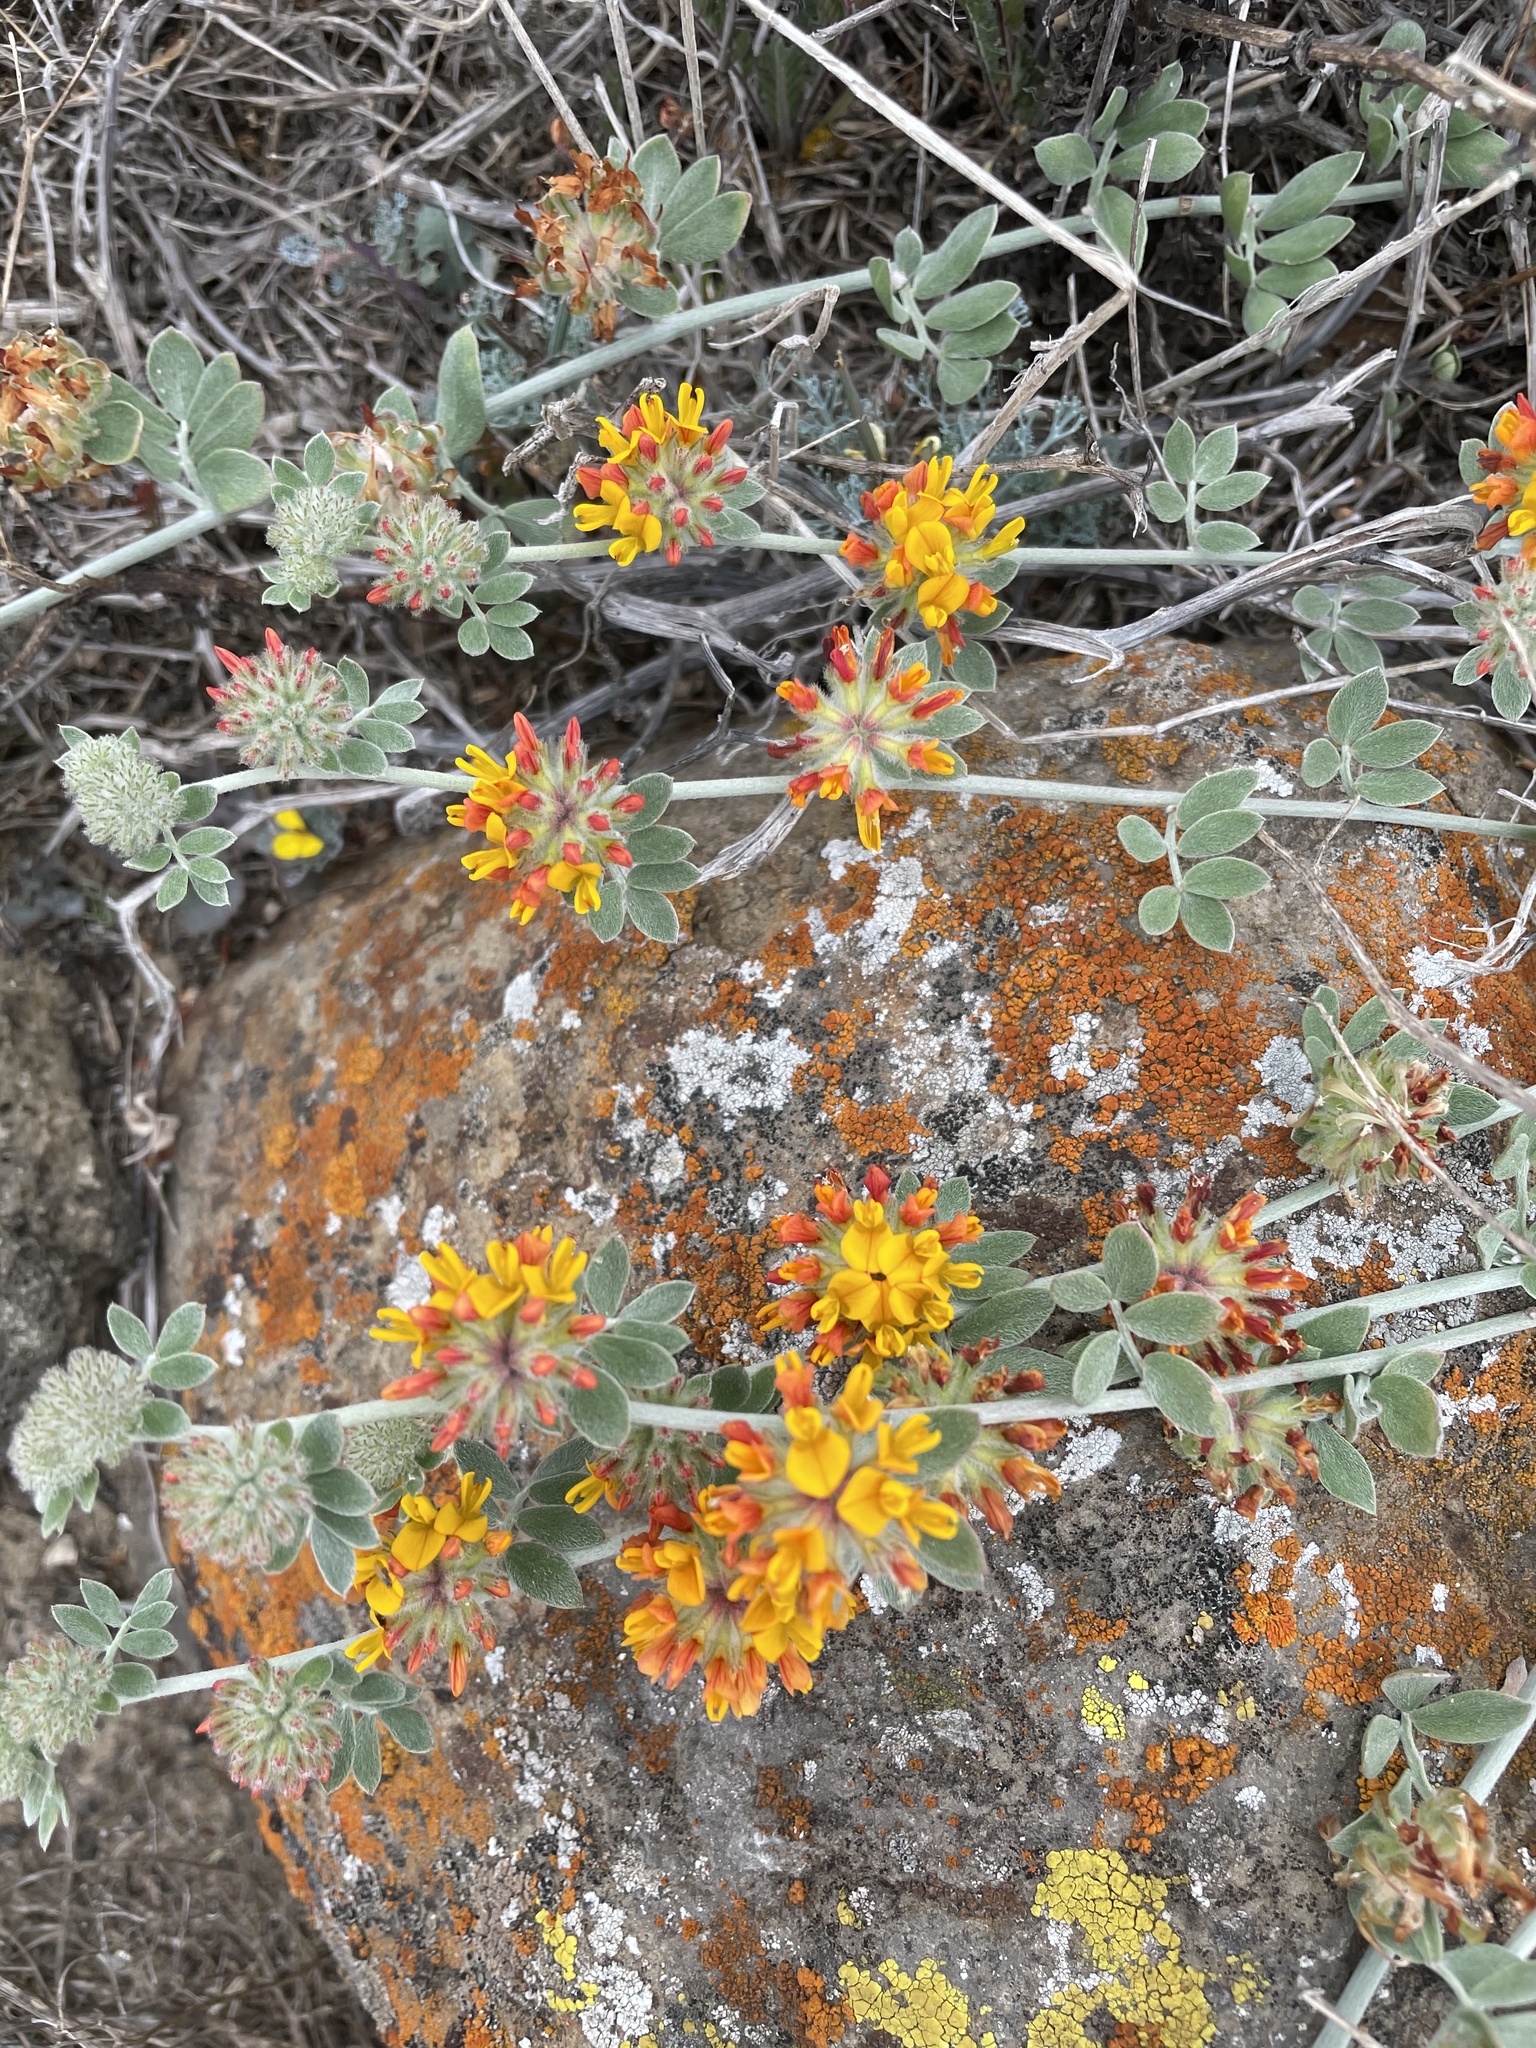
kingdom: Plantae
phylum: Tracheophyta
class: Magnoliopsida
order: Fabales
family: Fabaceae
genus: Acmispon
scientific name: Acmispon argophyllus
